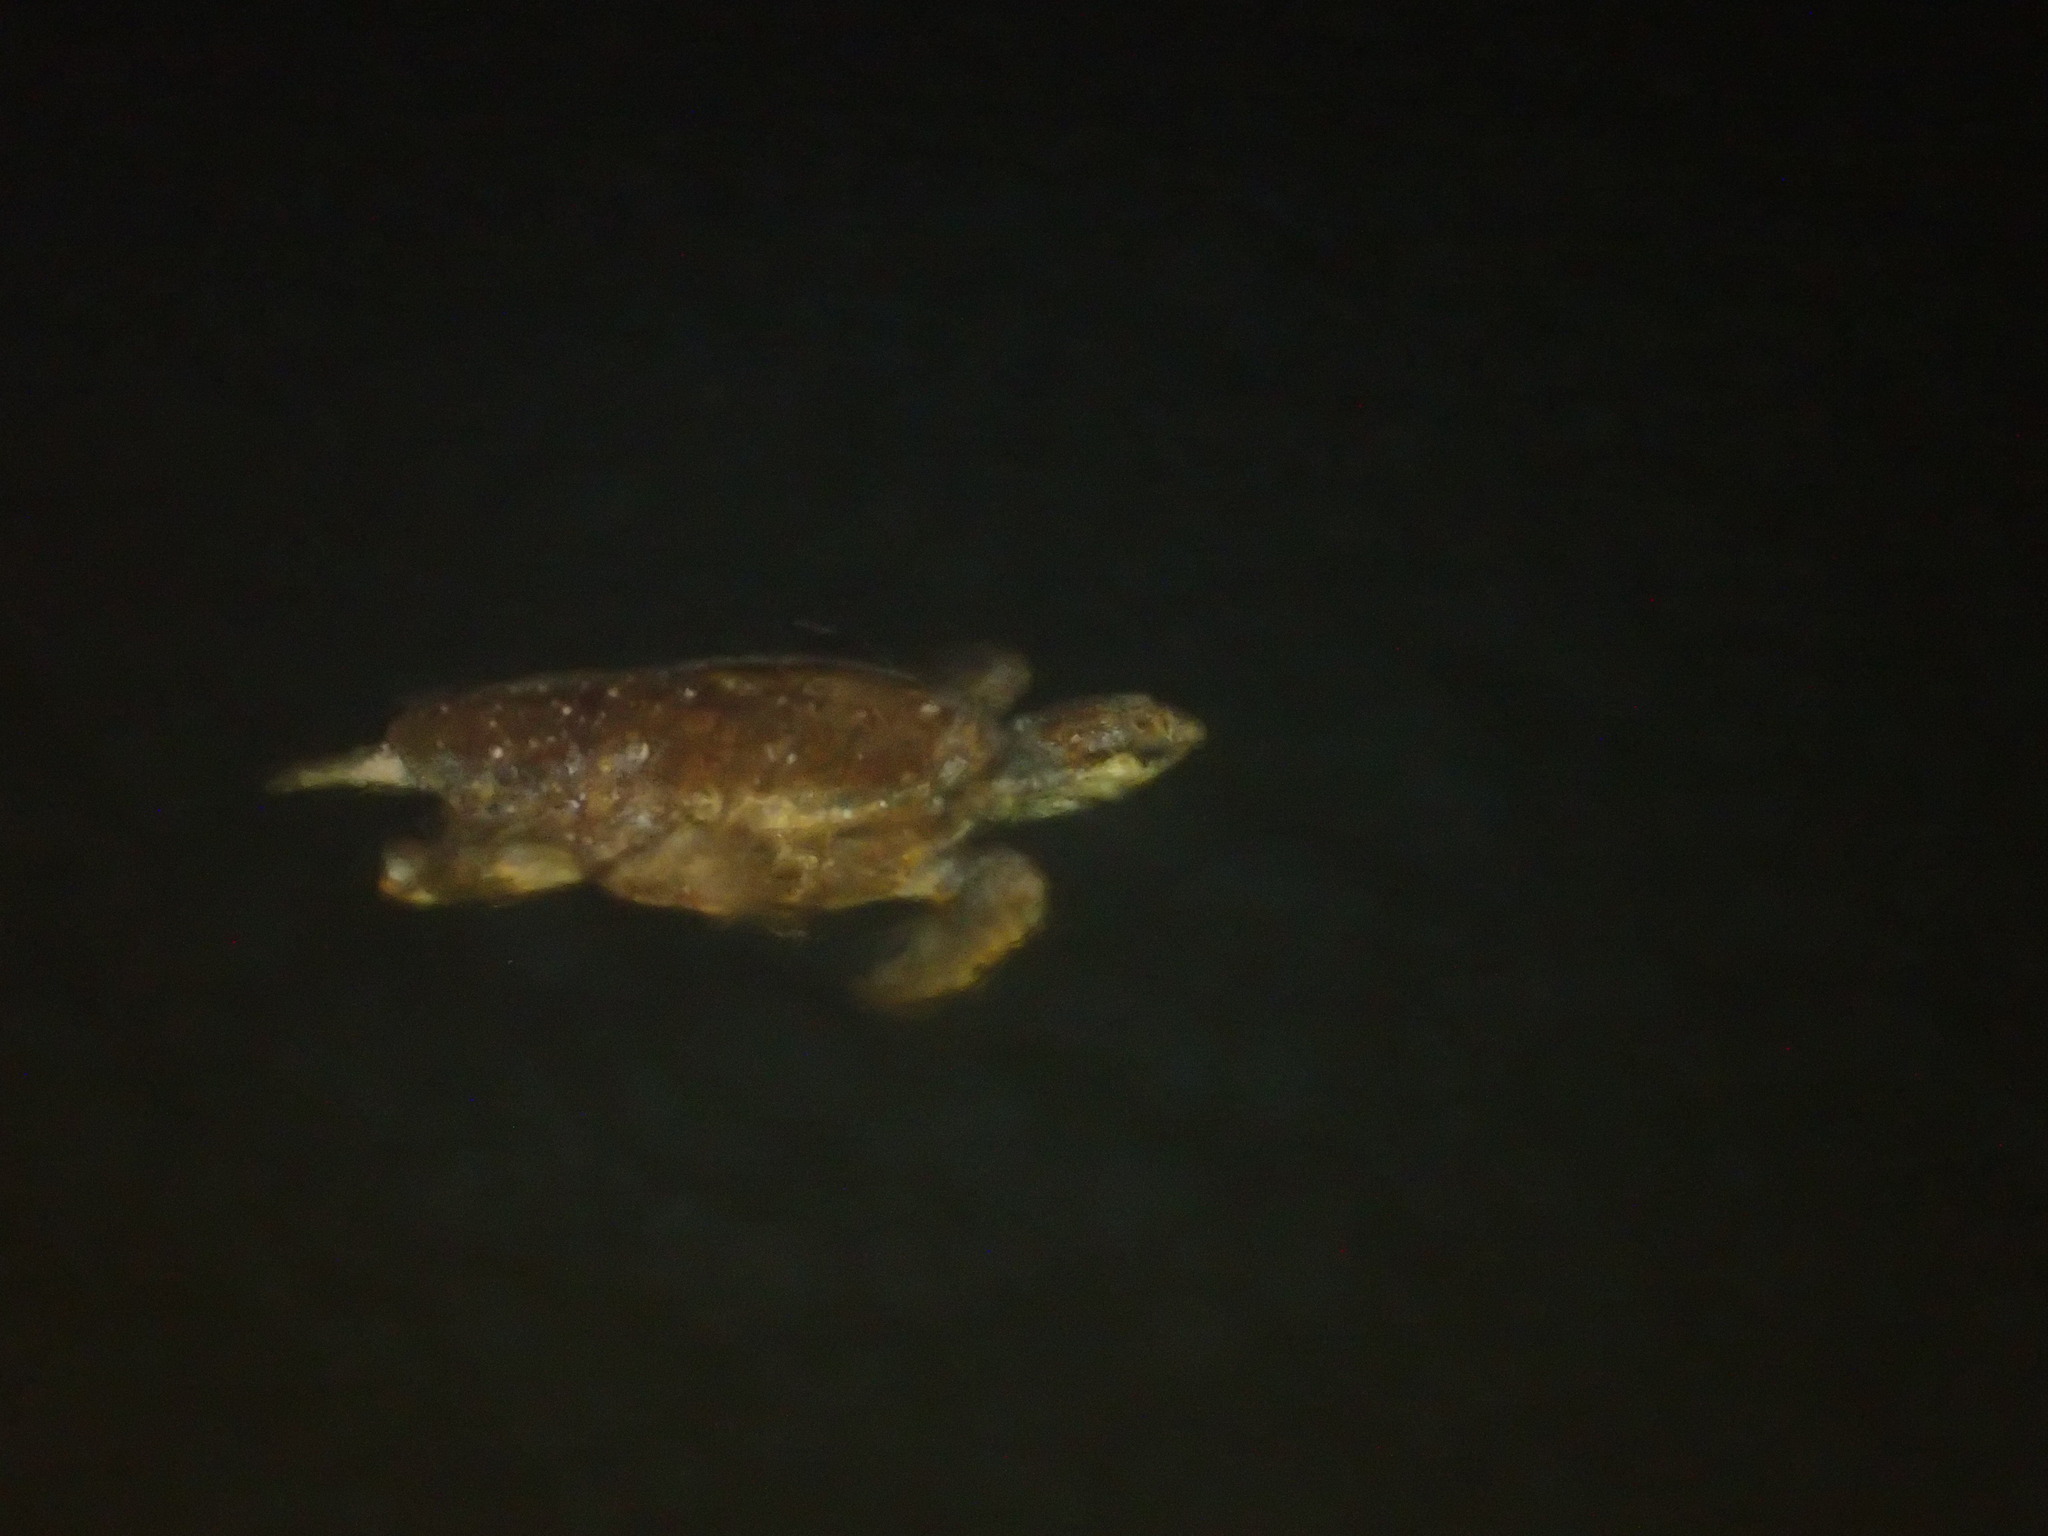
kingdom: Animalia
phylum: Chordata
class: Testudines
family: Cheloniidae
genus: Chelonia
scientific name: Chelonia mydas
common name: Green turtle
